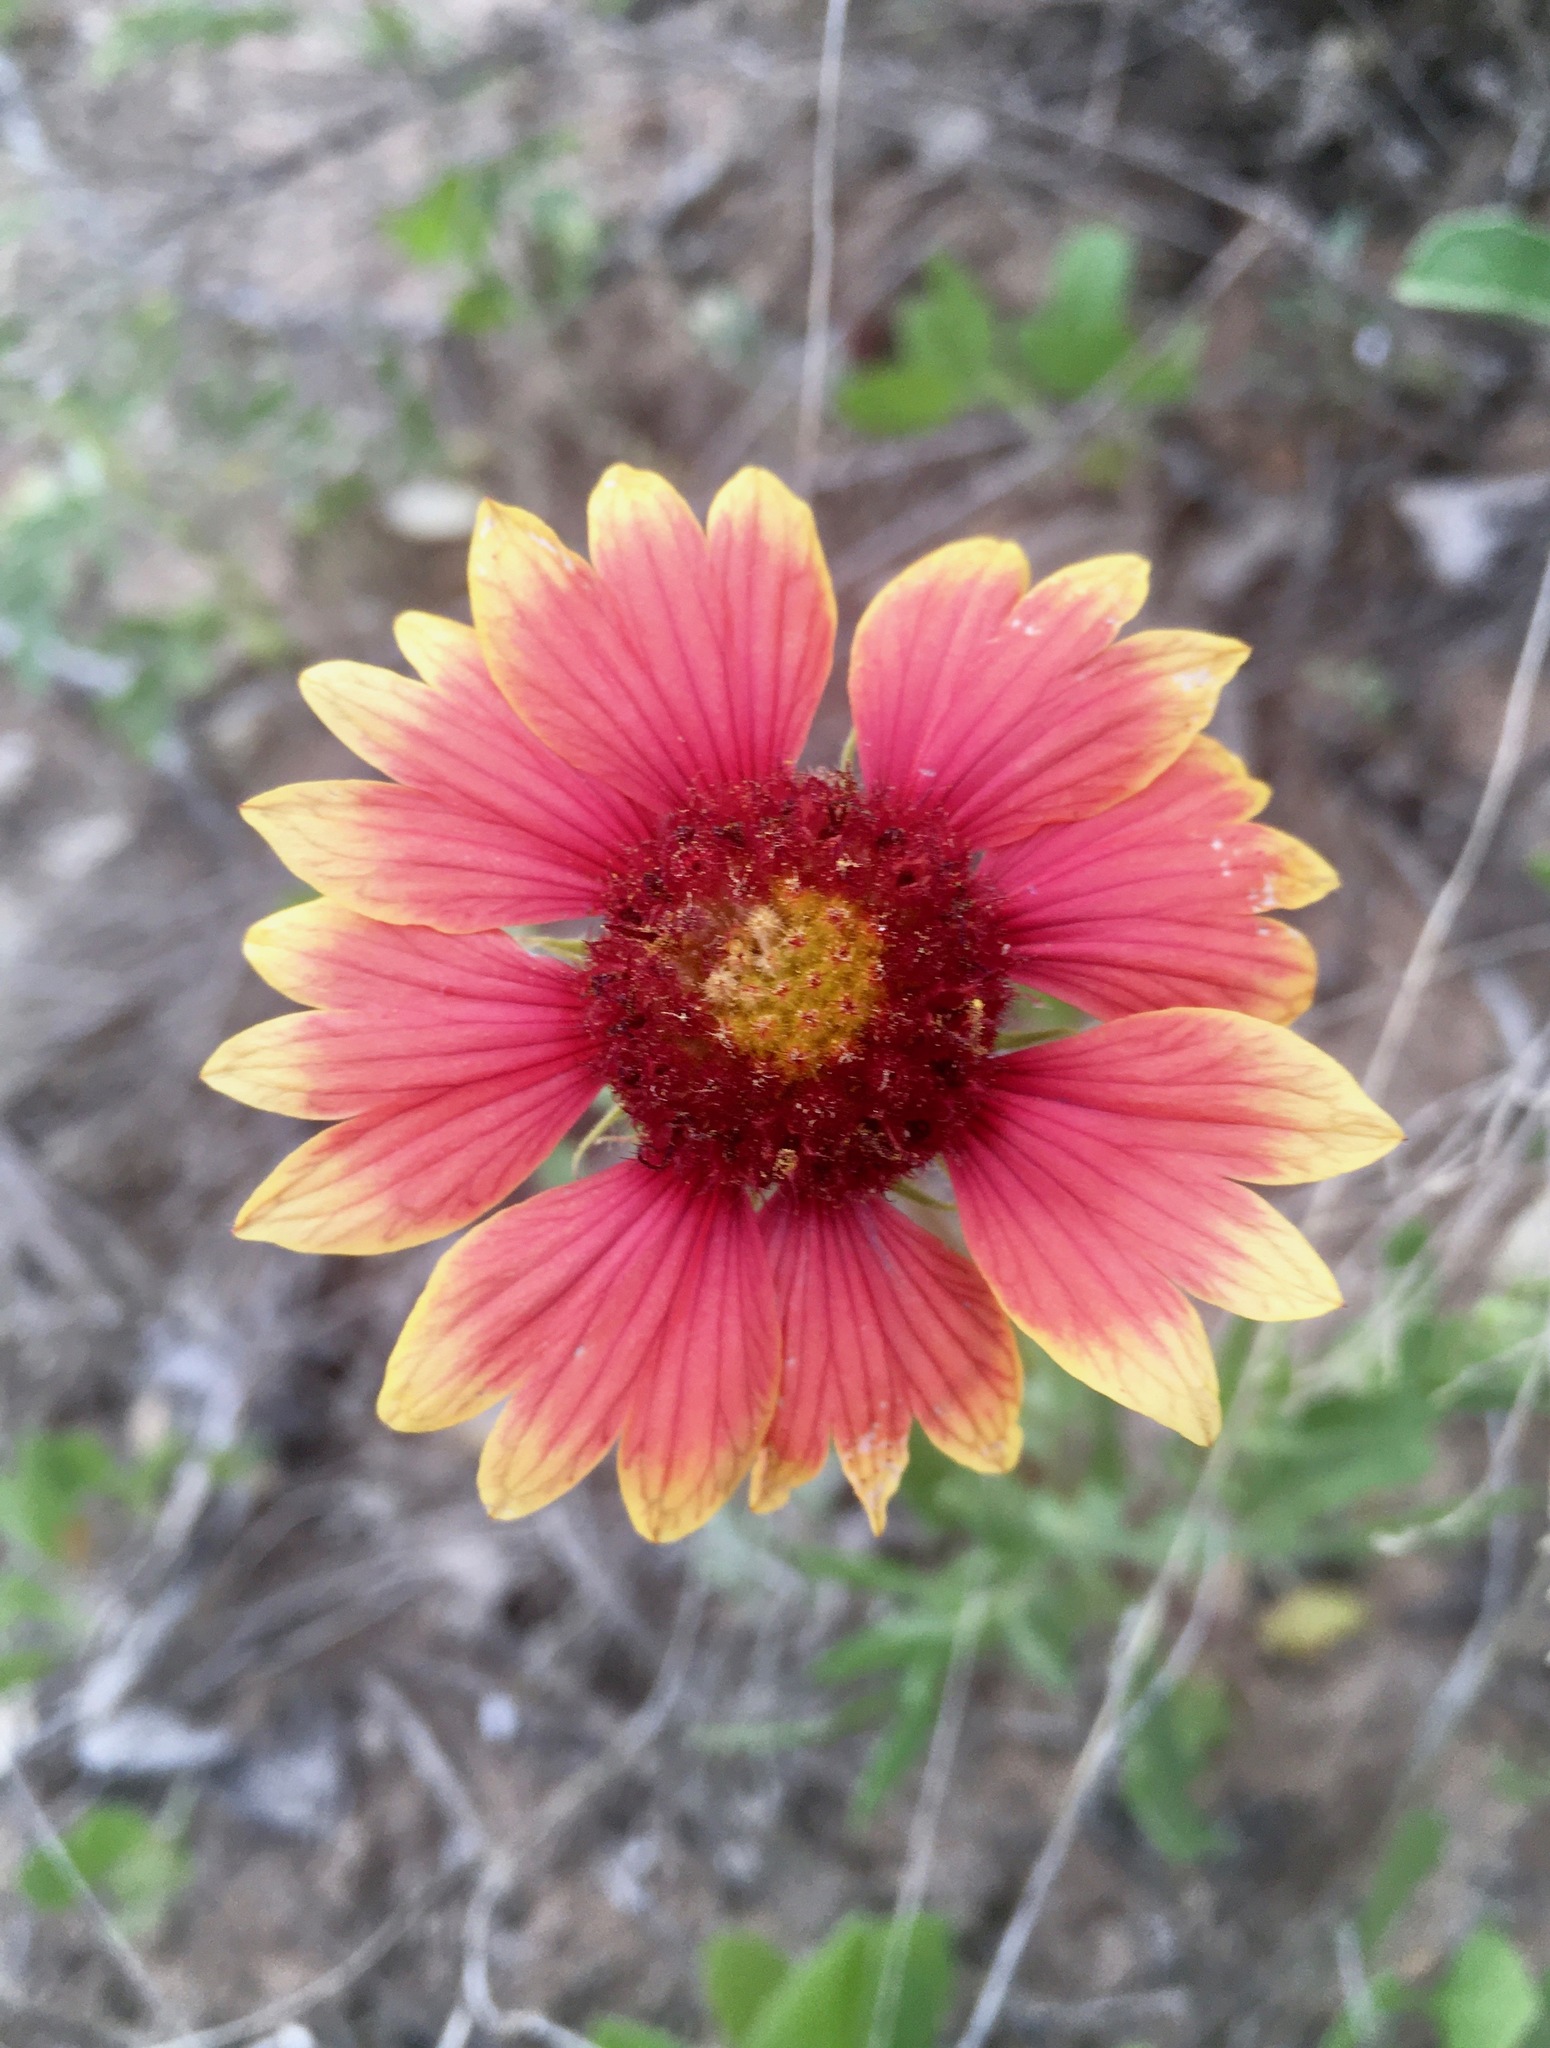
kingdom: Plantae
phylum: Tracheophyta
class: Magnoliopsida
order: Asterales
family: Asteraceae
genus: Gaillardia
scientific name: Gaillardia pulchella
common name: Firewheel
